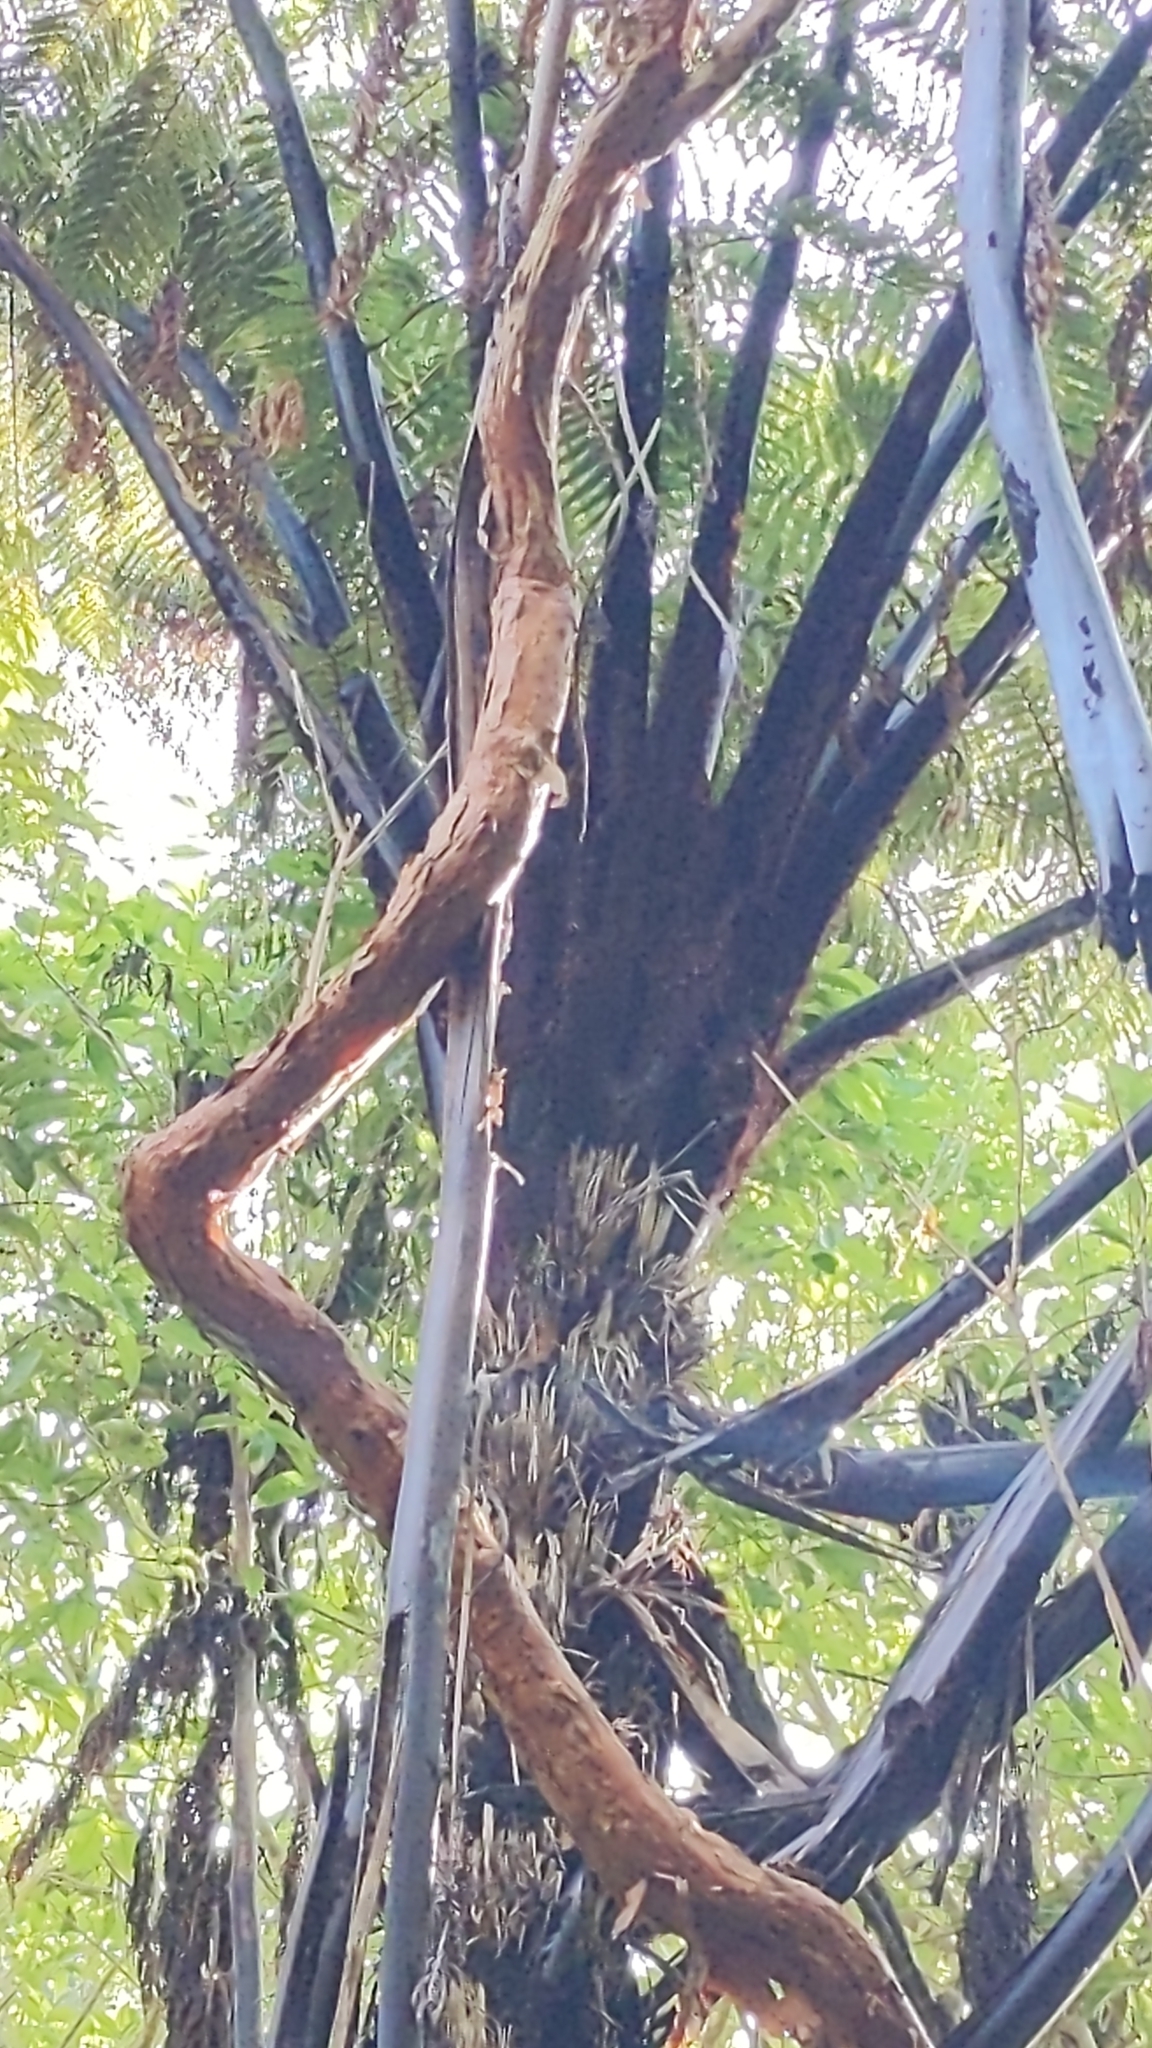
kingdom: Plantae
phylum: Tracheophyta
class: Polypodiopsida
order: Cyatheales
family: Cyatheaceae
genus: Sphaeropteris
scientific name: Sphaeropteris medullaris
